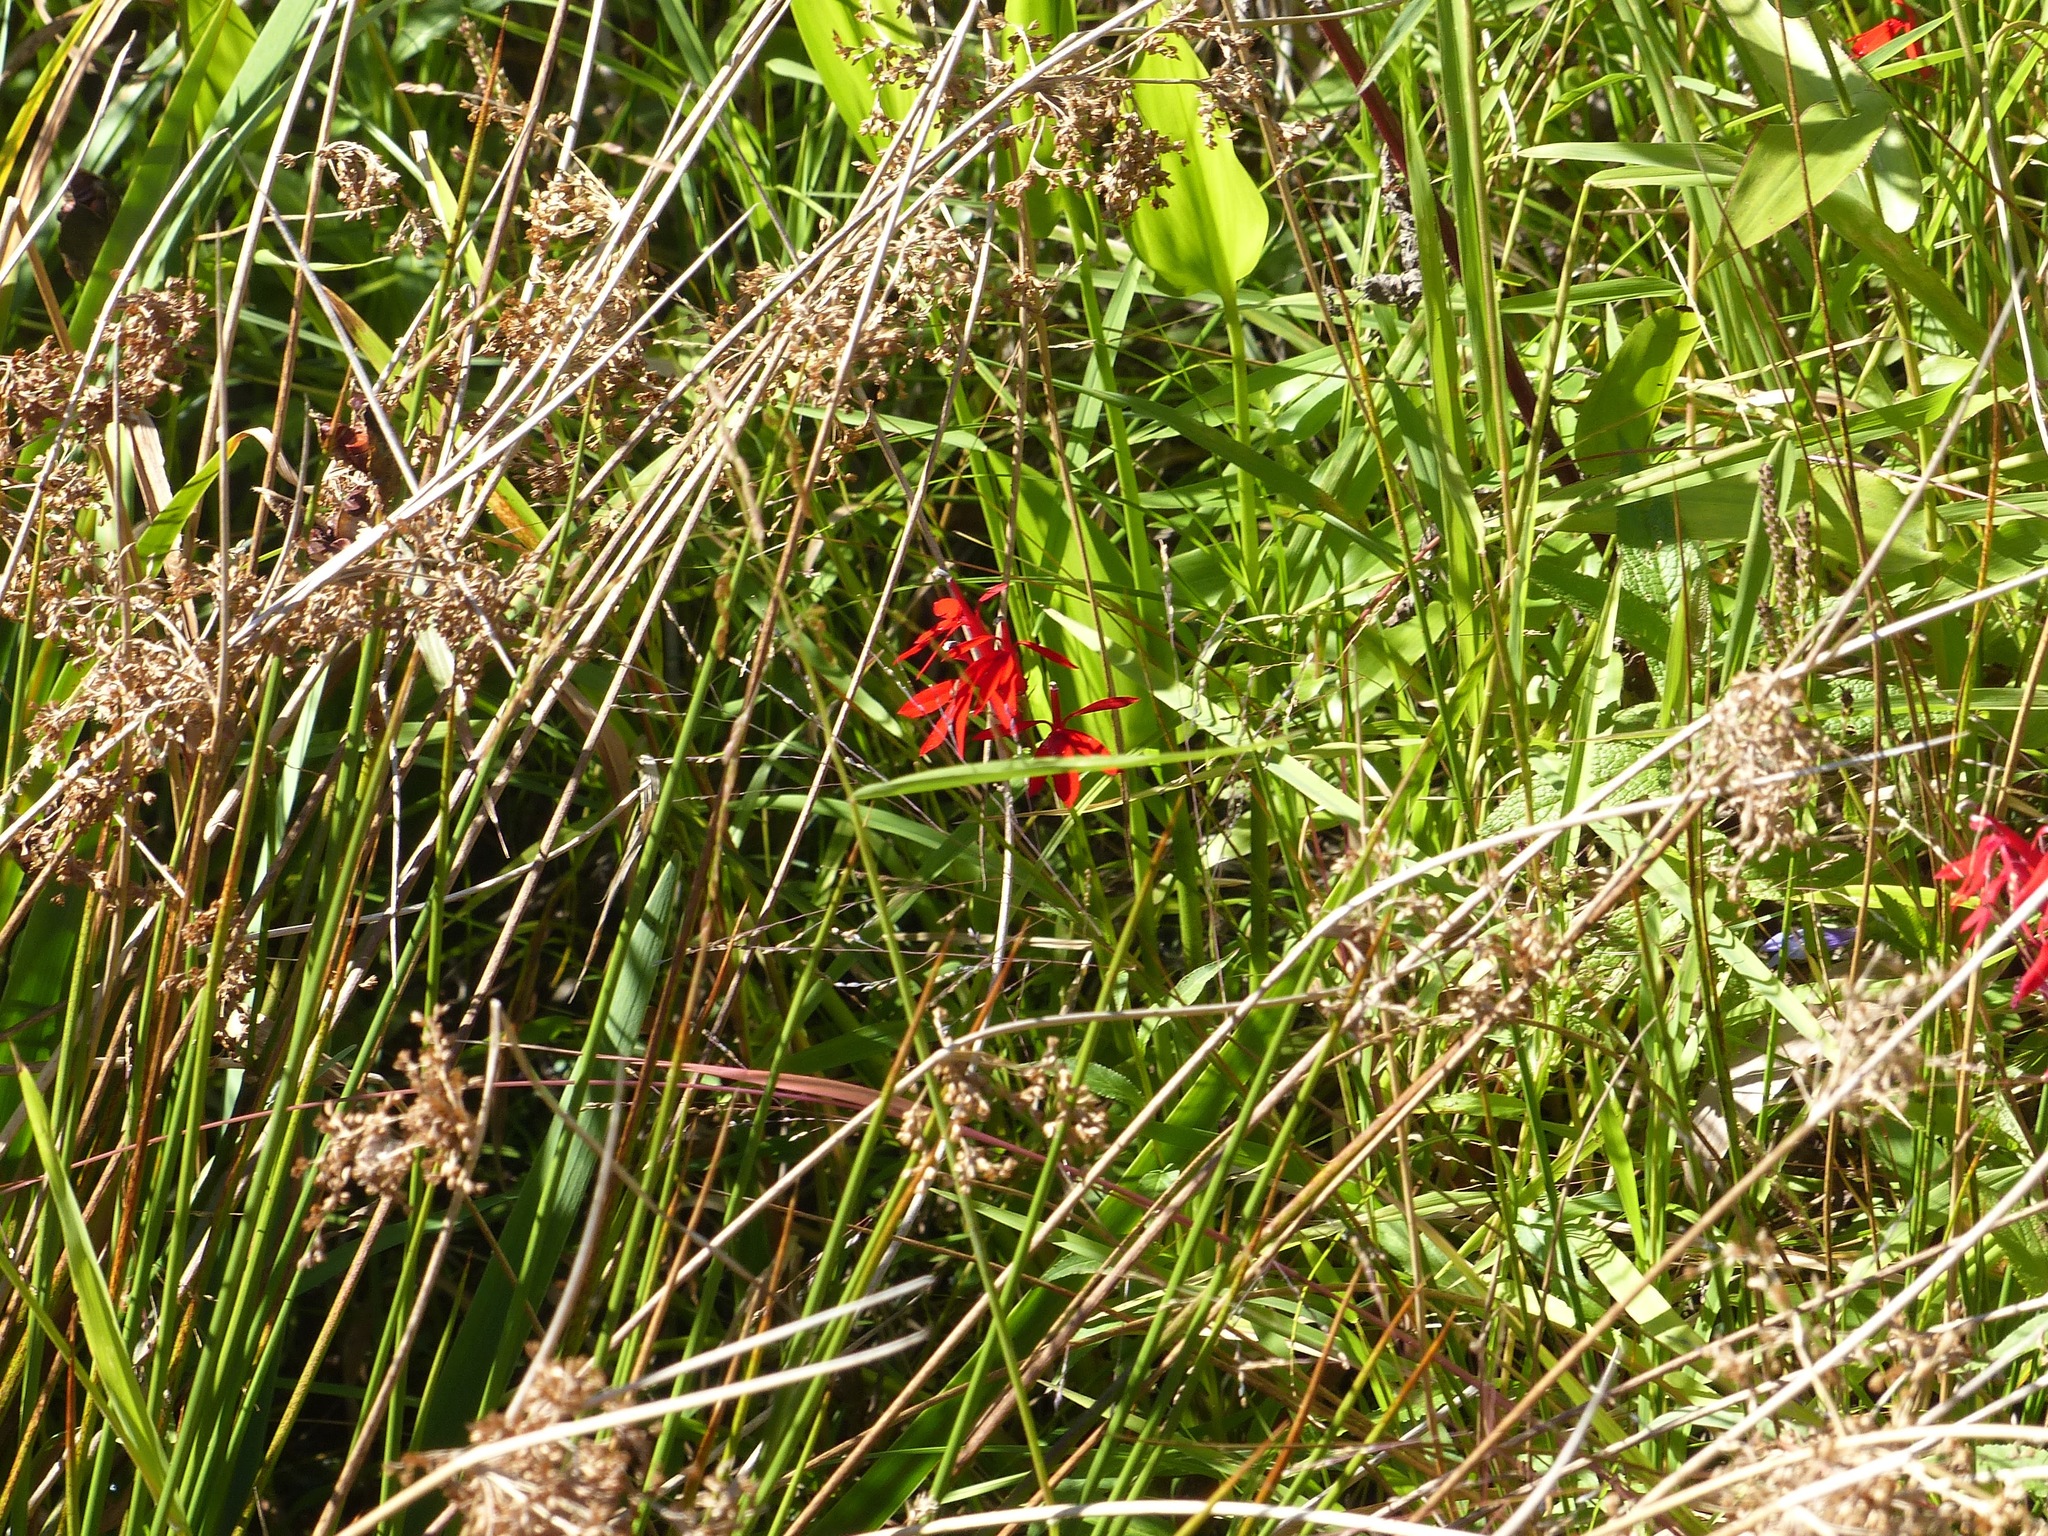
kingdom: Plantae
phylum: Tracheophyta
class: Magnoliopsida
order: Asterales
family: Campanulaceae
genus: Lobelia
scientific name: Lobelia cardinalis
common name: Cardinal flower
